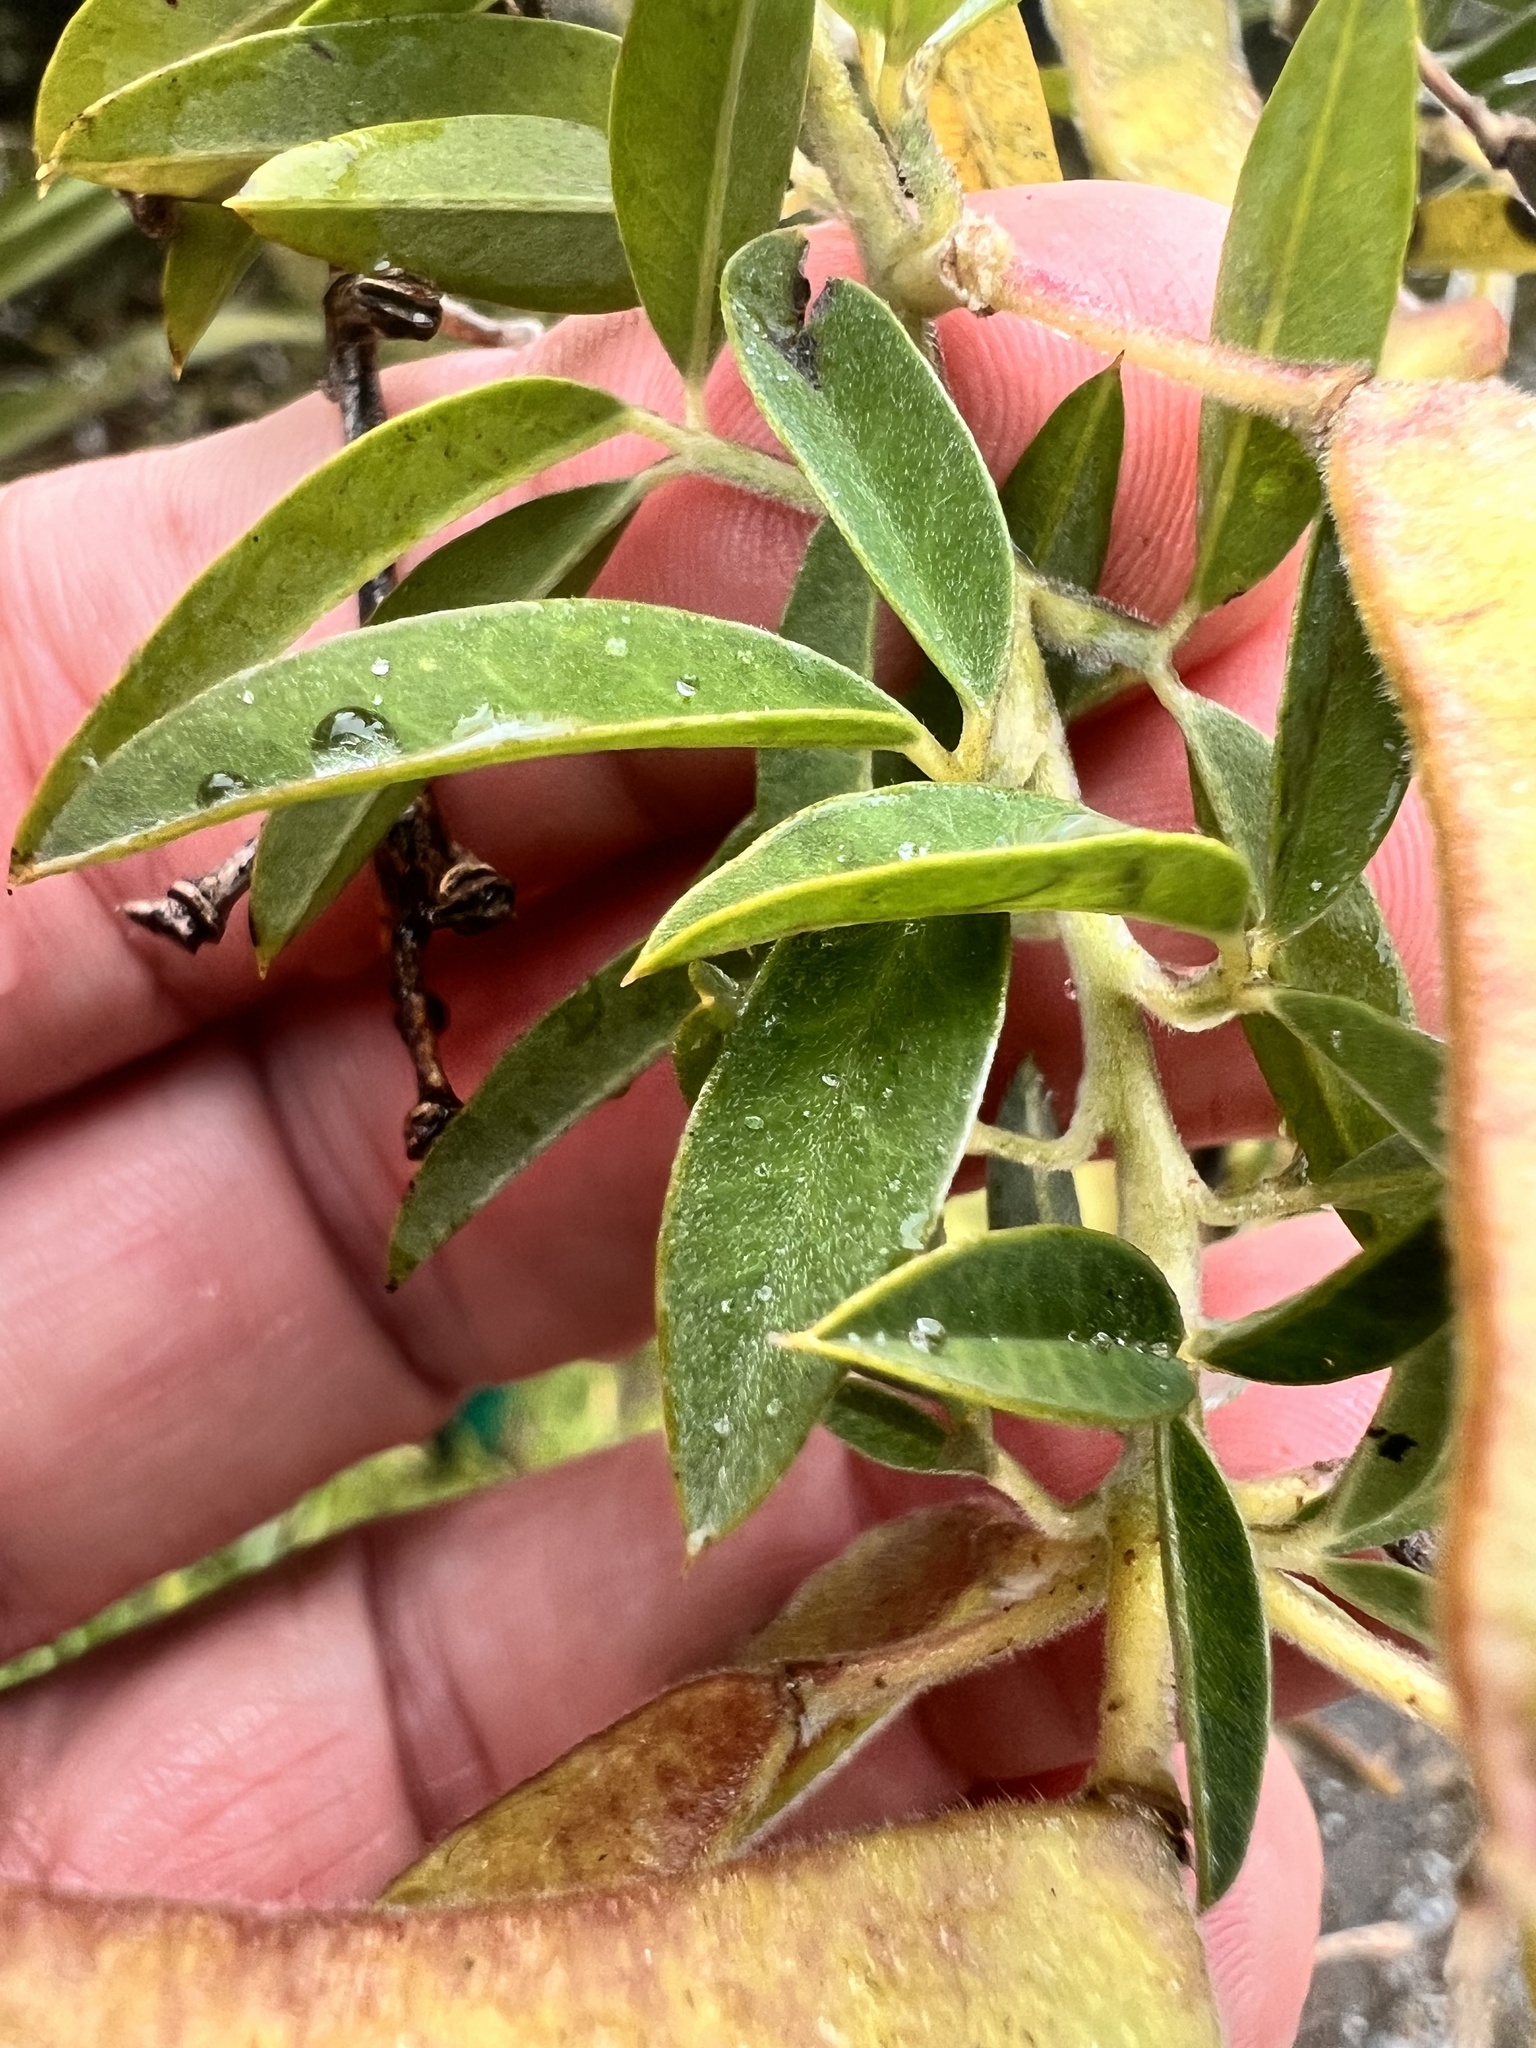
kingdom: Plantae
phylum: Tracheophyta
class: Magnoliopsida
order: Fabales
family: Fabaceae
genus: Chamaecytisus
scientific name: Chamaecytisus prolifer
